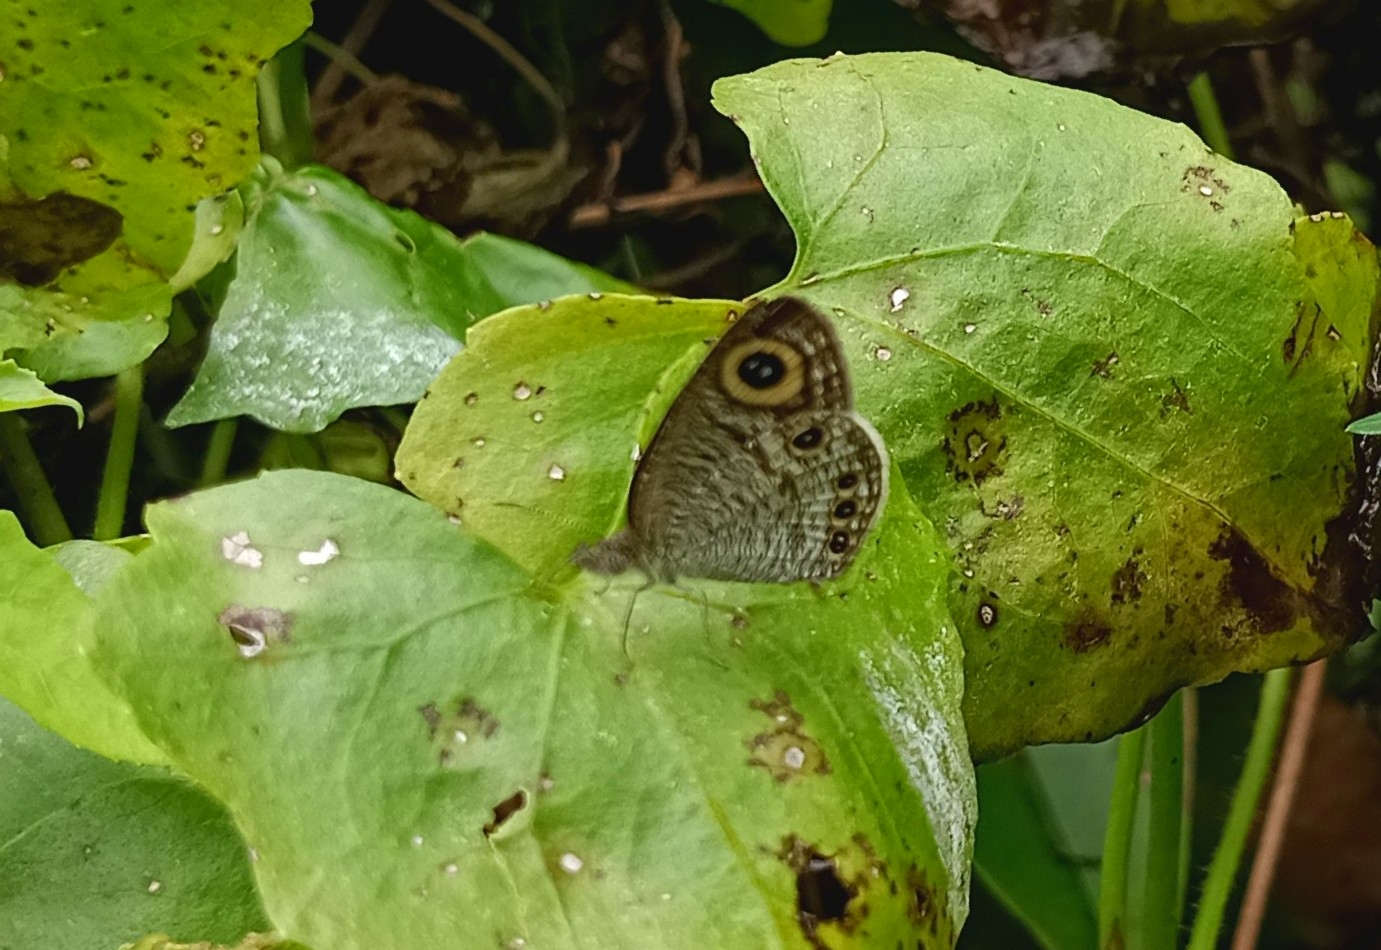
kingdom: Animalia
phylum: Arthropoda
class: Insecta
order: Lepidoptera
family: Nymphalidae
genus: Ypthima
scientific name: Ypthima huebneri
